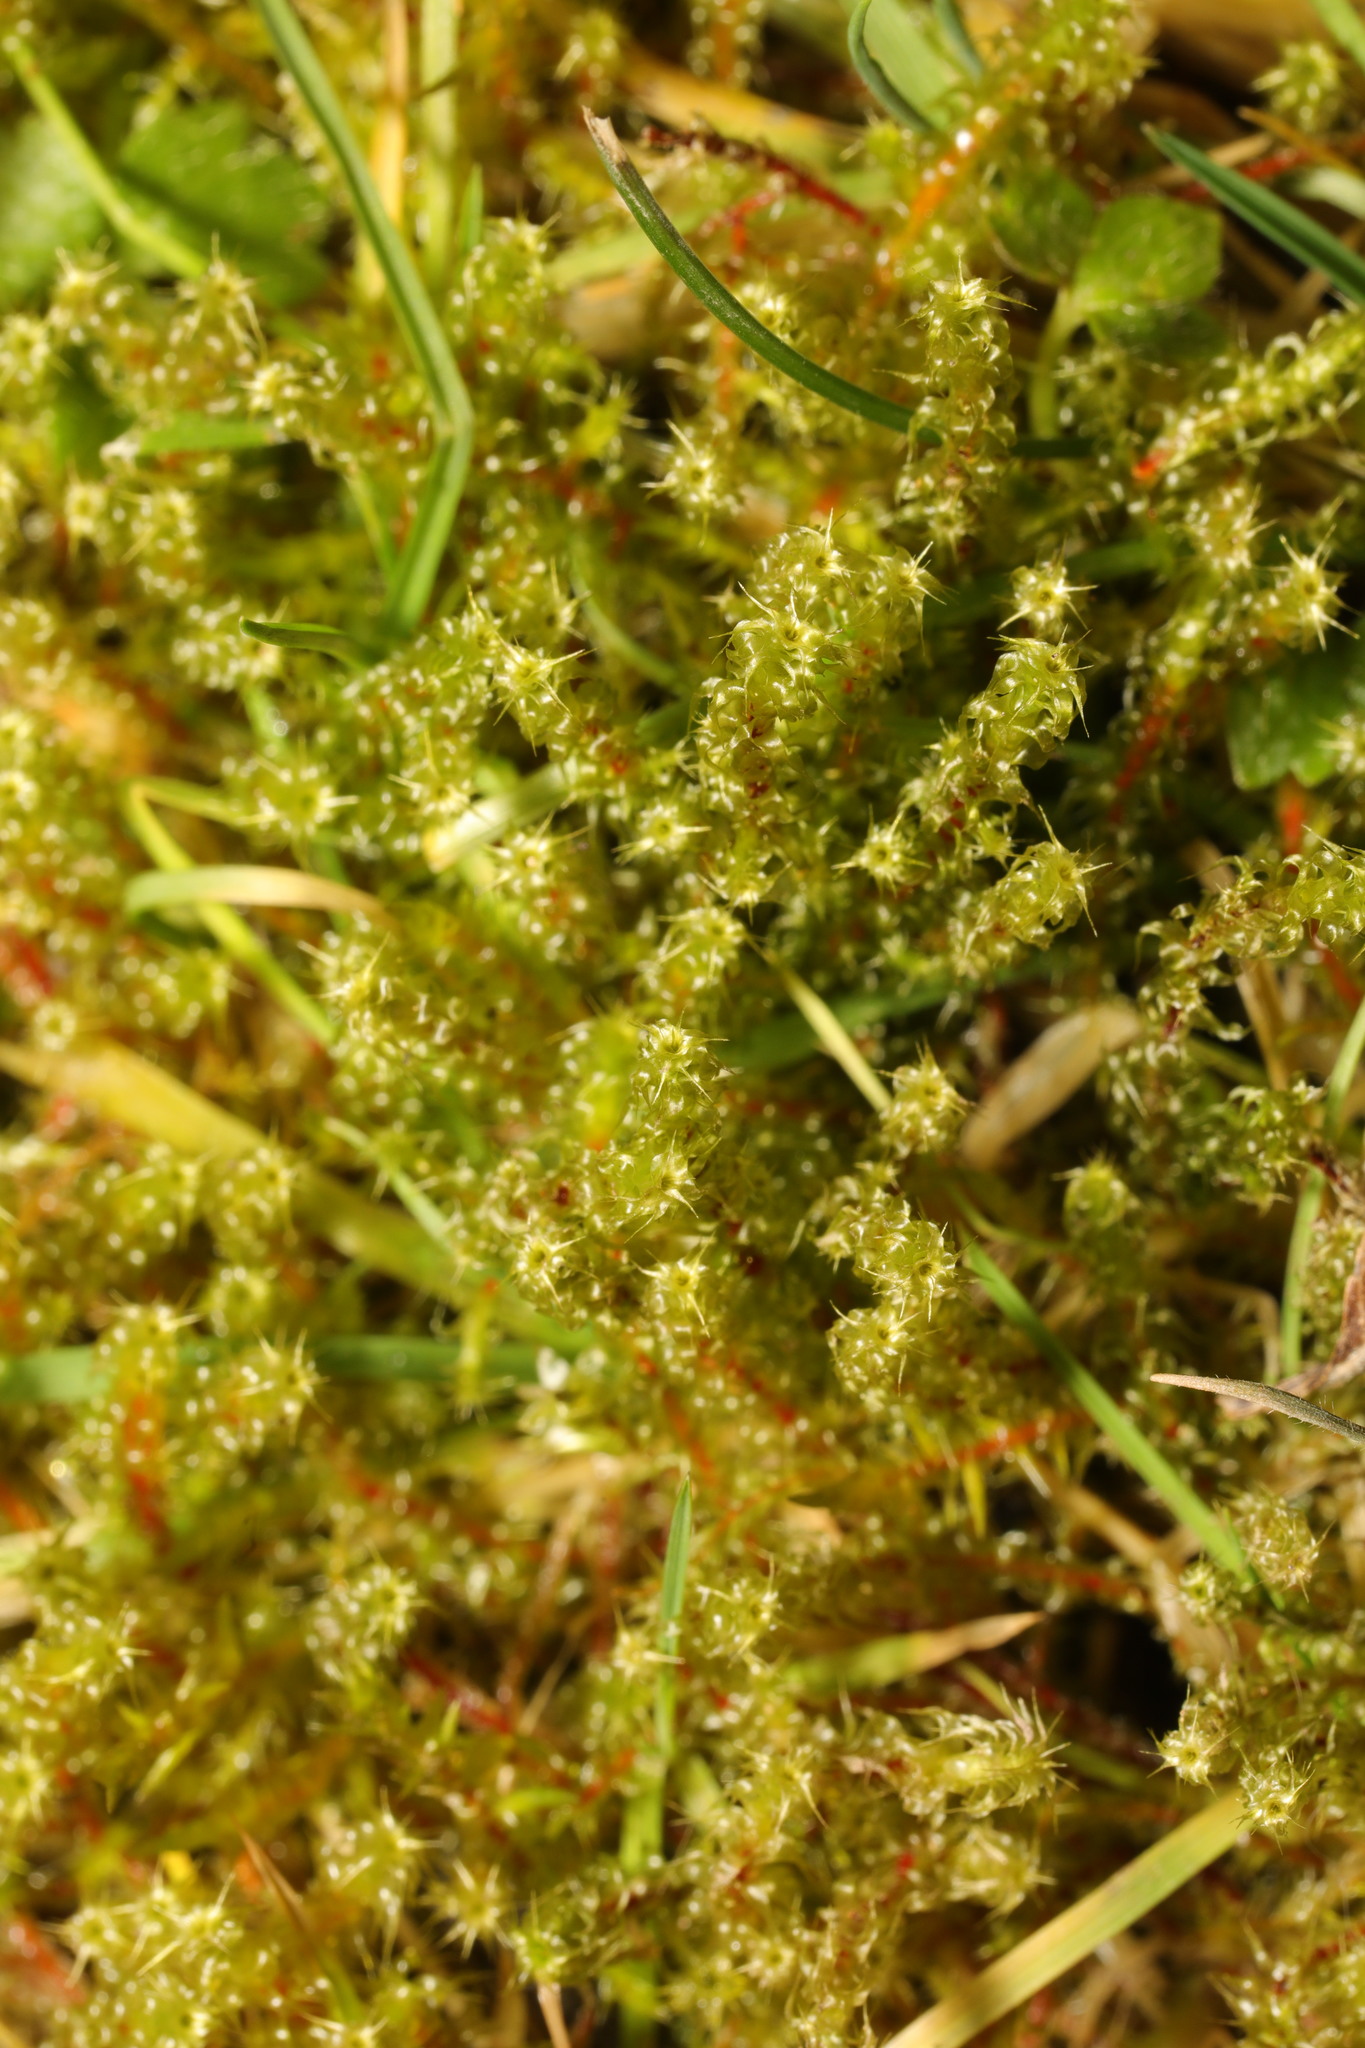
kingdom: Plantae
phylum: Bryophyta
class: Bryopsida
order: Hypnales
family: Hylocomiaceae
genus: Rhytidiadelphus
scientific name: Rhytidiadelphus squarrosus
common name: Springy turf-moss
